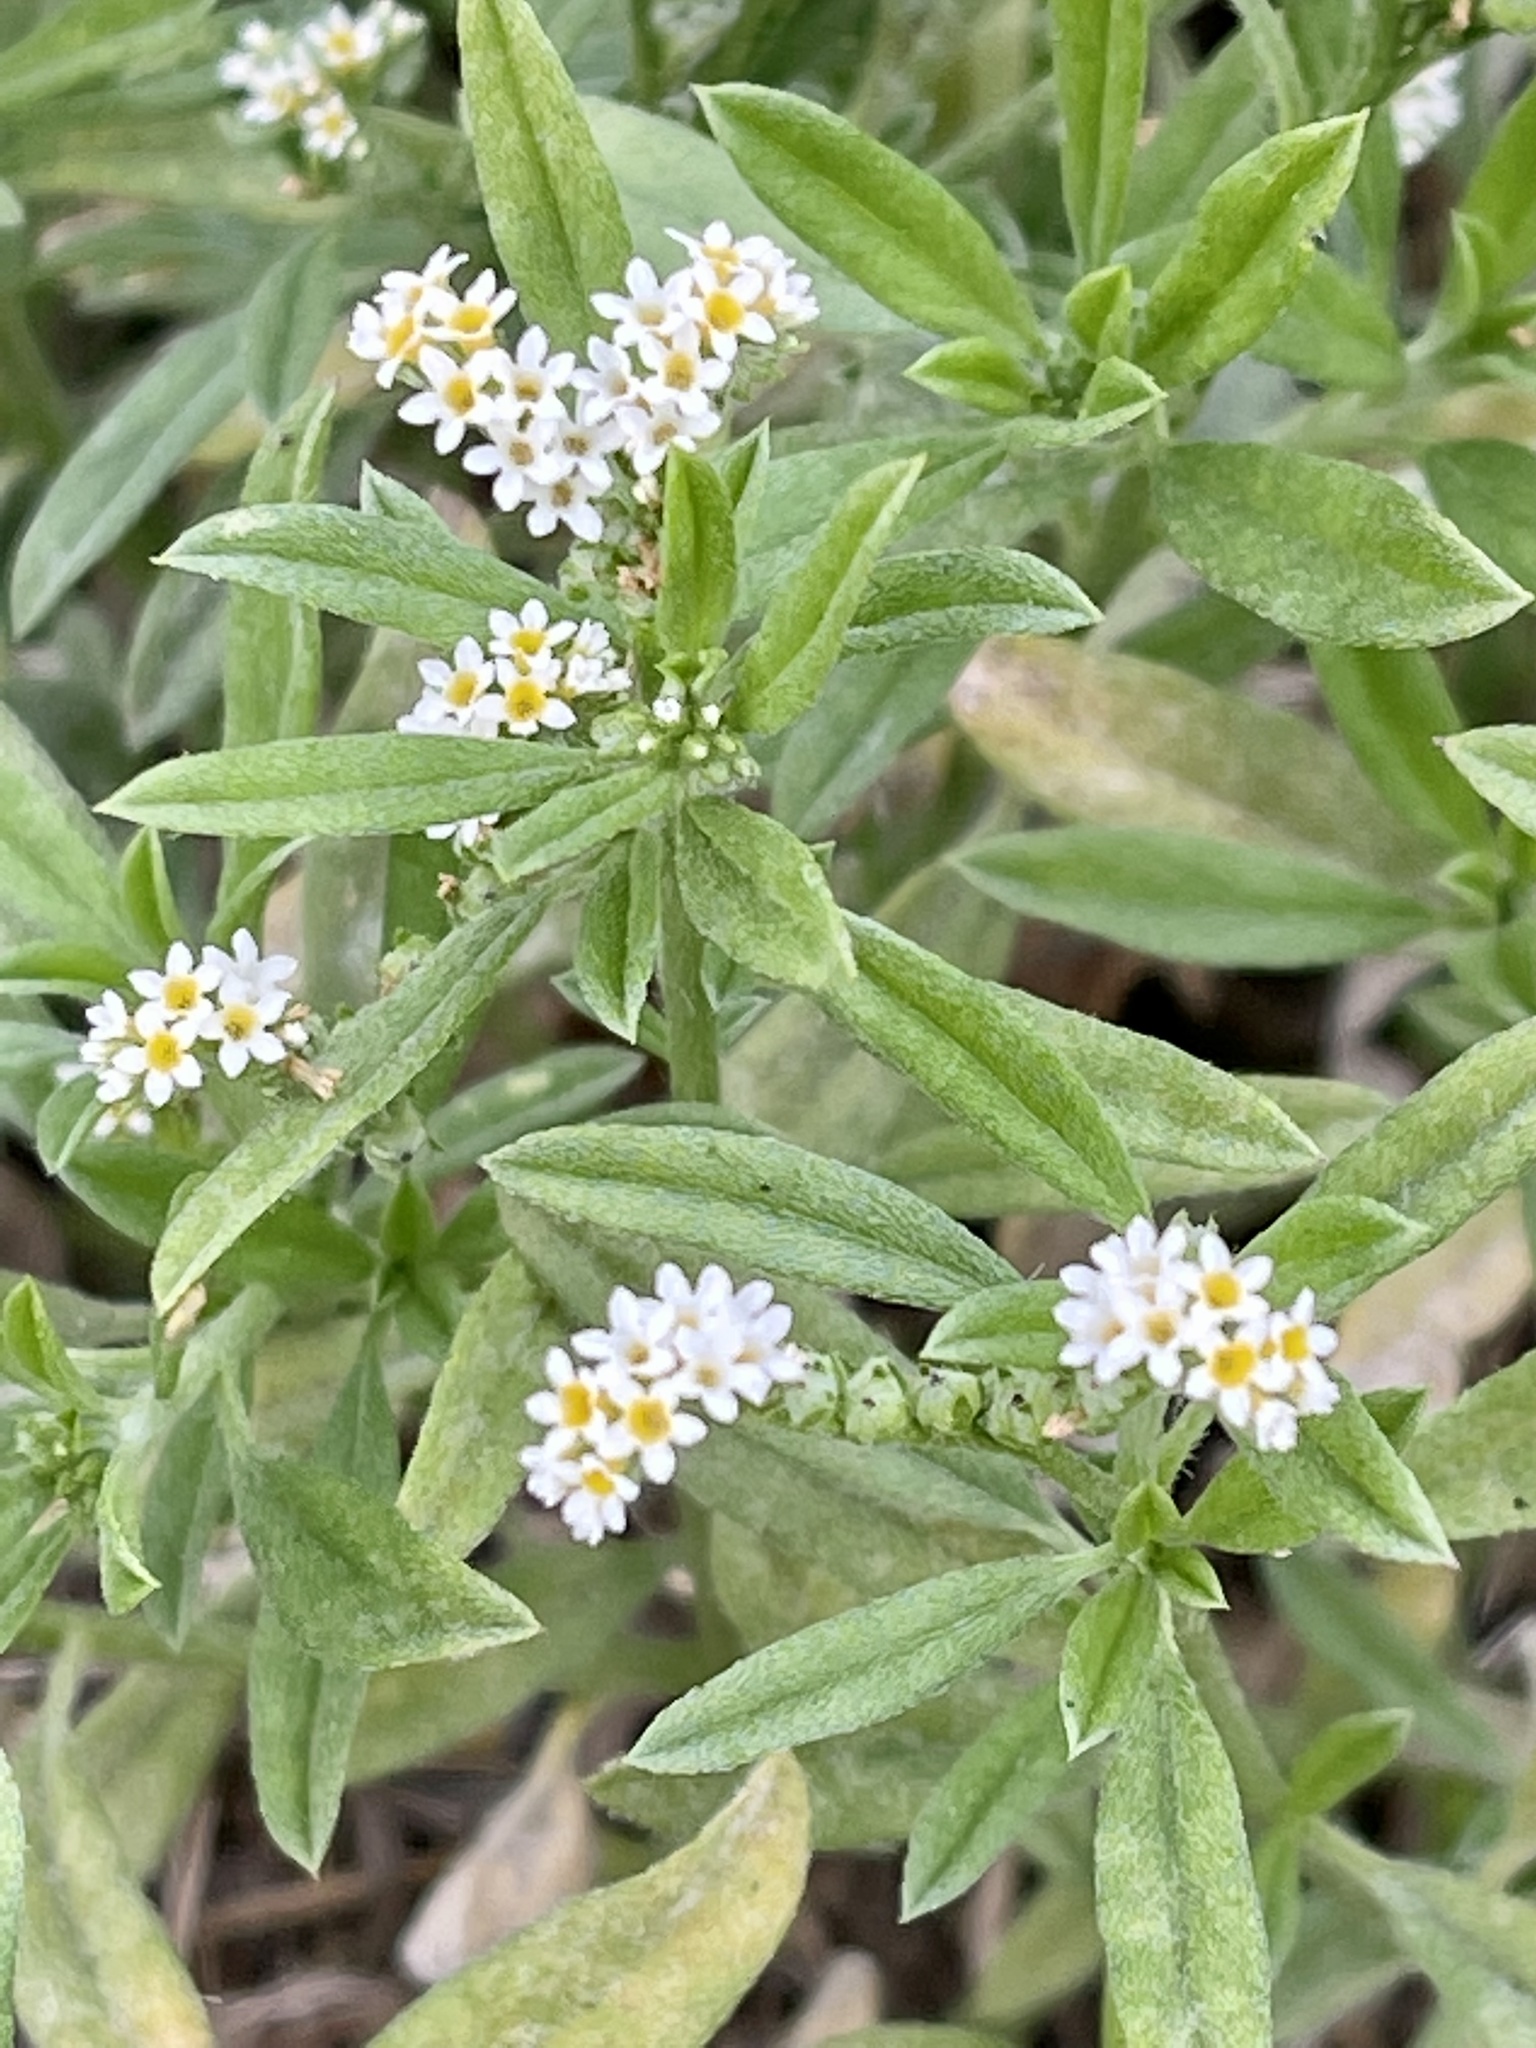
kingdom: Plantae
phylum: Tracheophyta
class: Magnoliopsida
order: Boraginales
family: Heliotropiaceae
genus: Euploca
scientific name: Euploca procumbens
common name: Fourspike heliotrope
